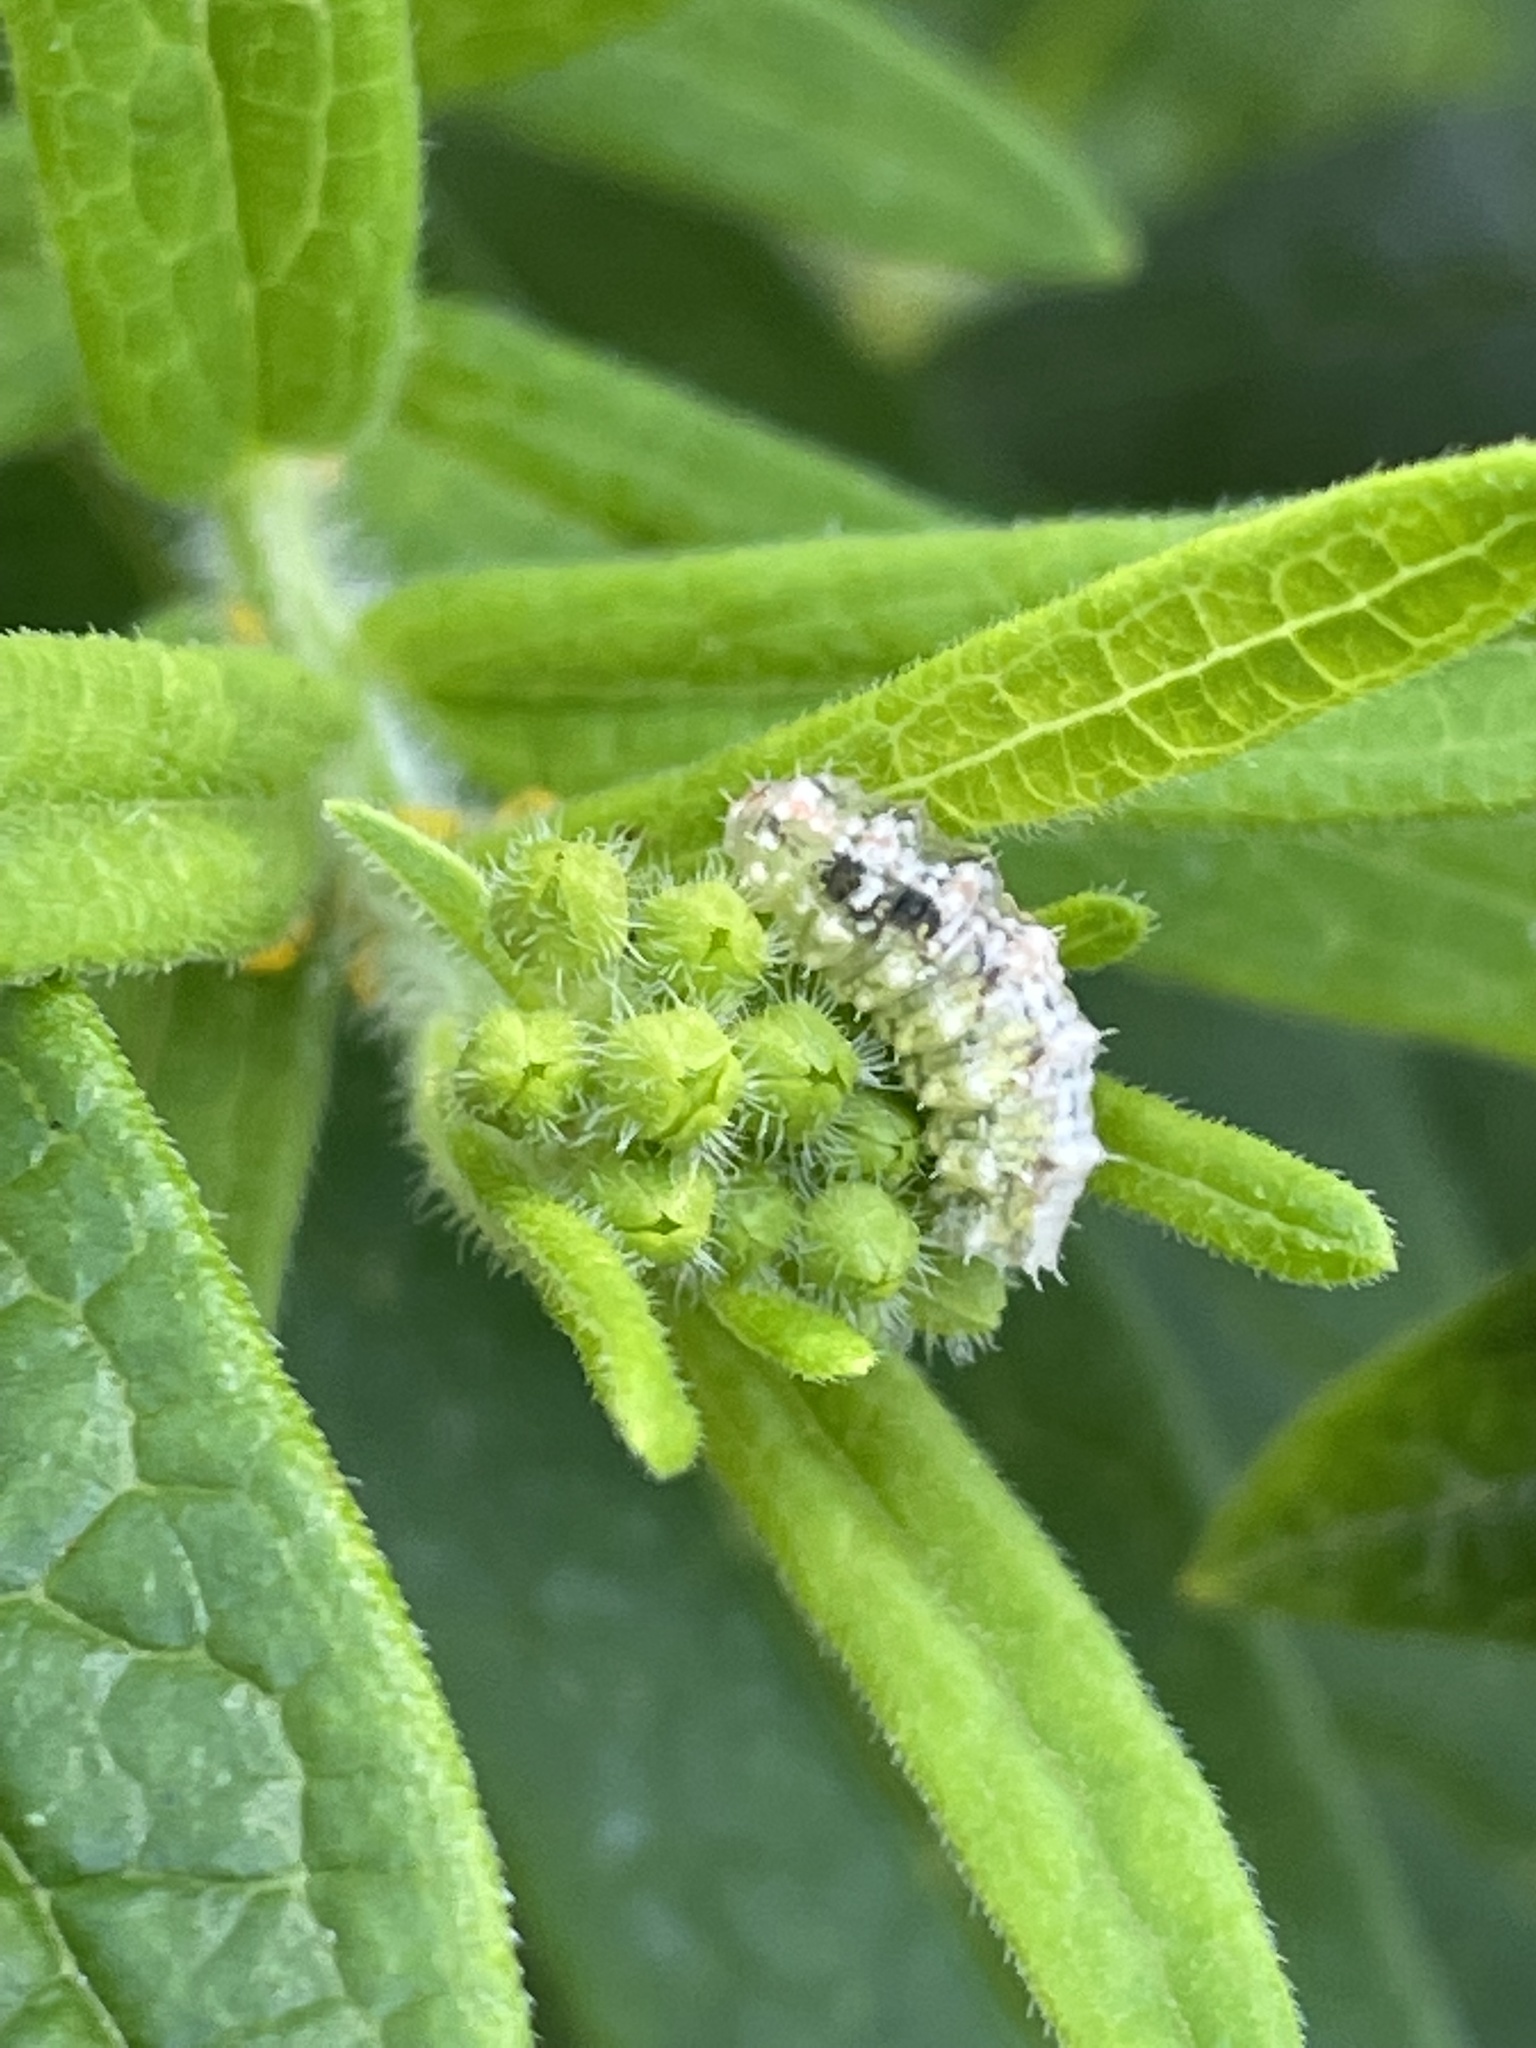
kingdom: Animalia
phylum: Arthropoda
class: Insecta
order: Diptera
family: Syrphidae
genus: Dioprosopa
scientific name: Dioprosopa clavatus
